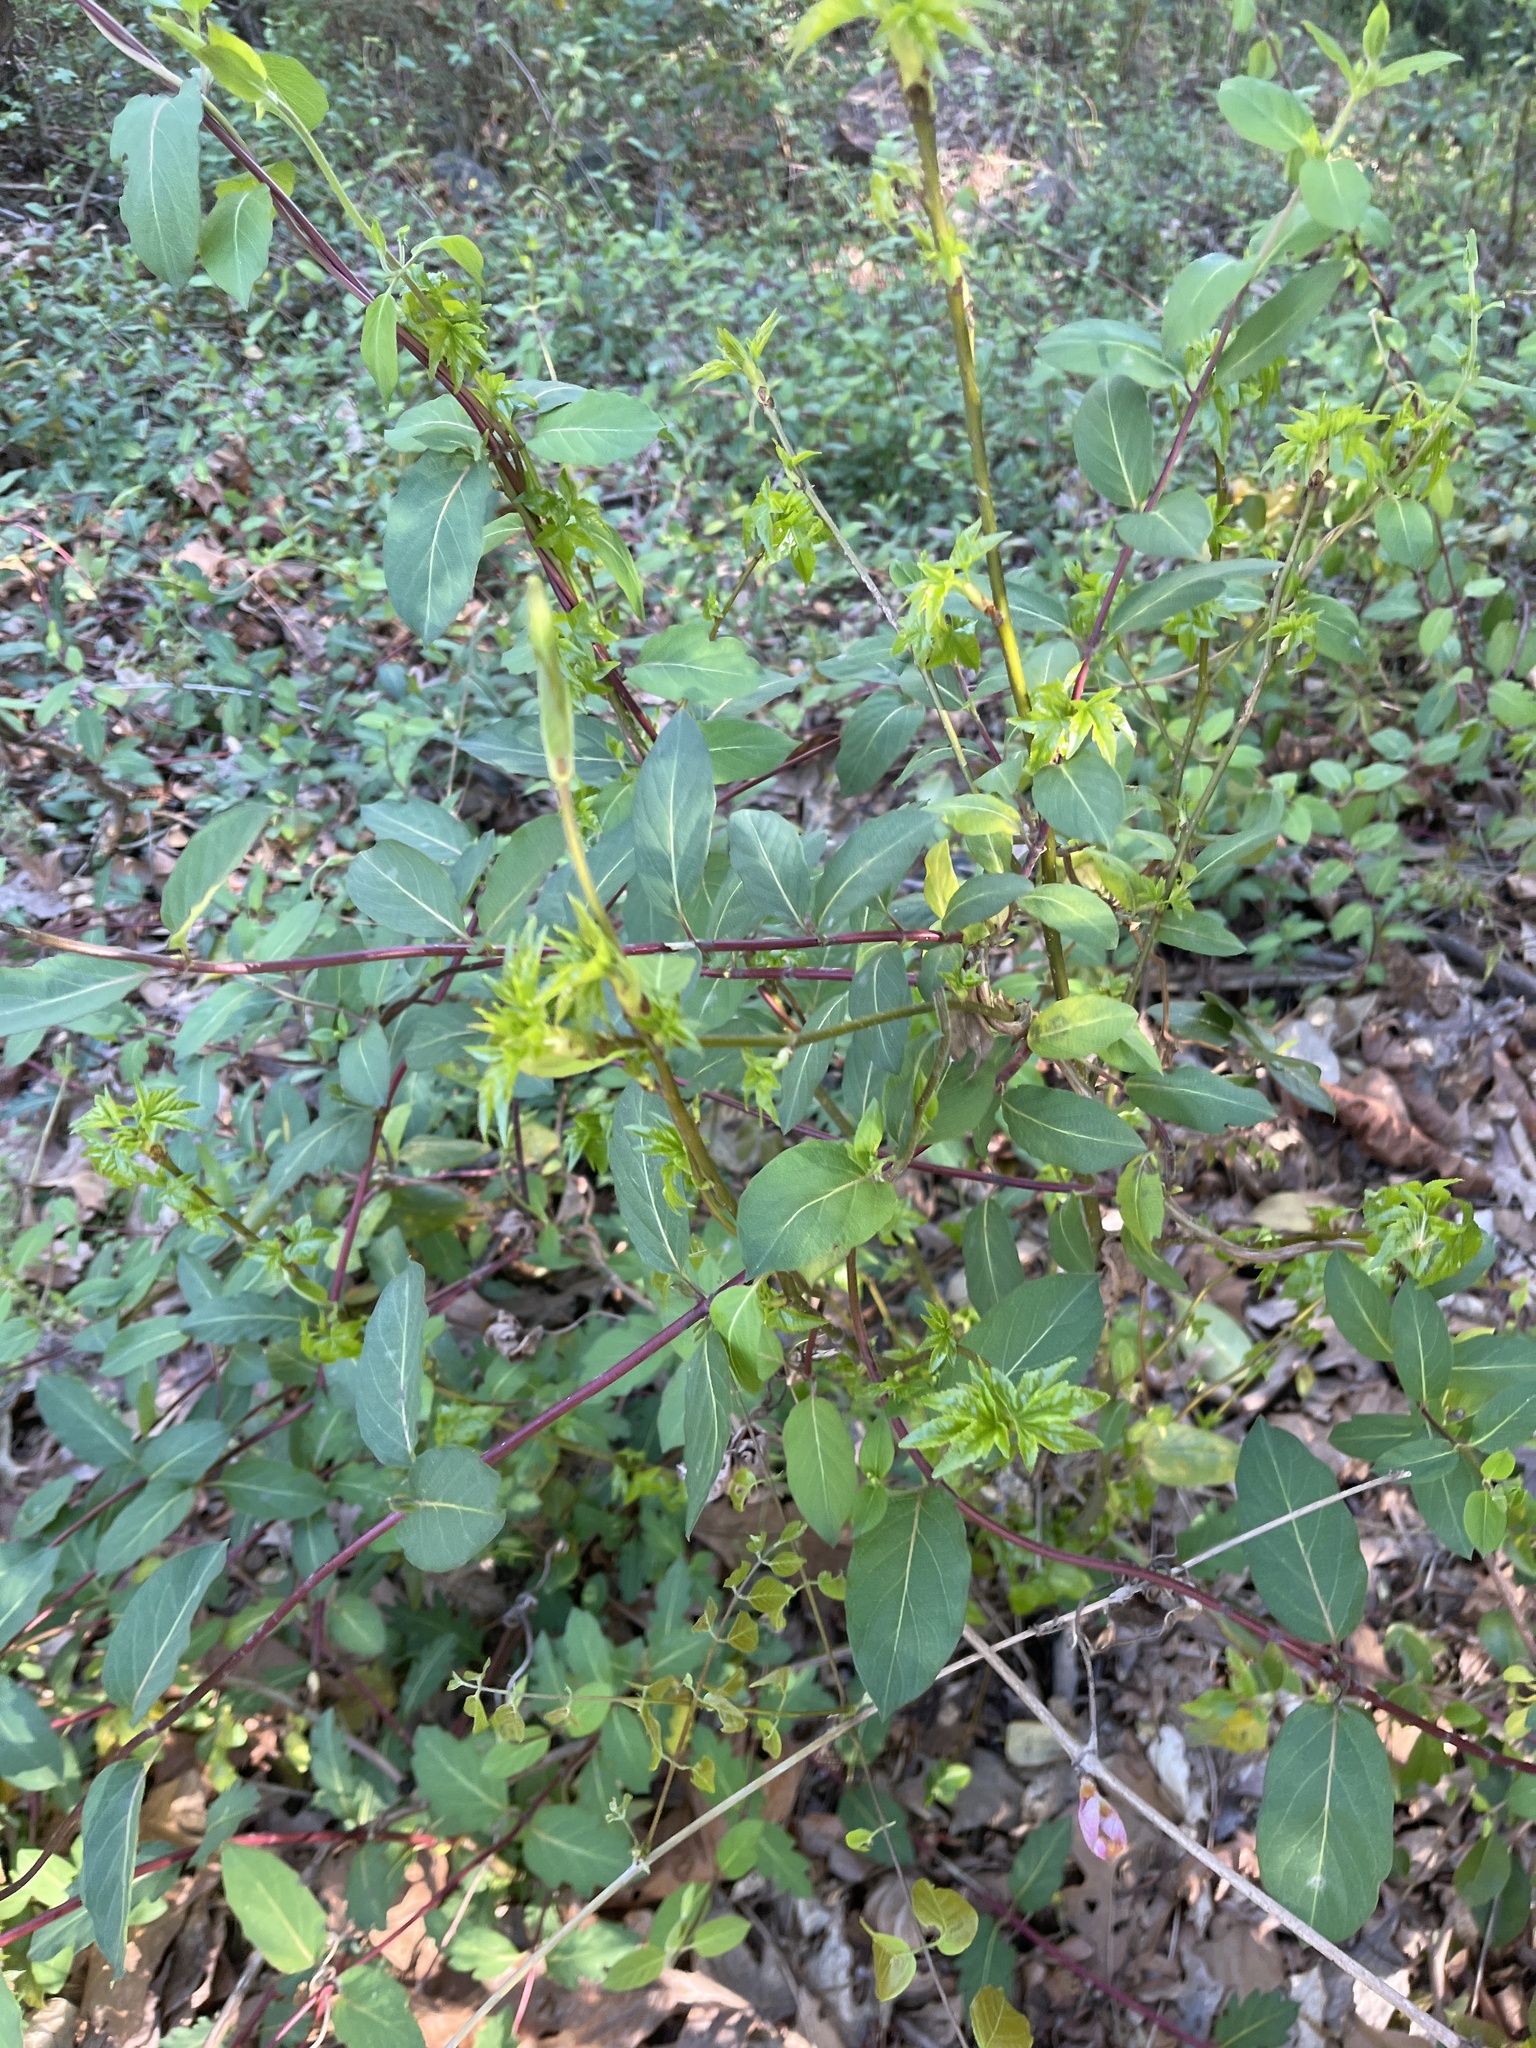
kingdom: Plantae
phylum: Tracheophyta
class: Magnoliopsida
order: Dipsacales
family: Caprifoliaceae
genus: Lonicera
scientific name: Lonicera japonica
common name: Japanese honeysuckle
